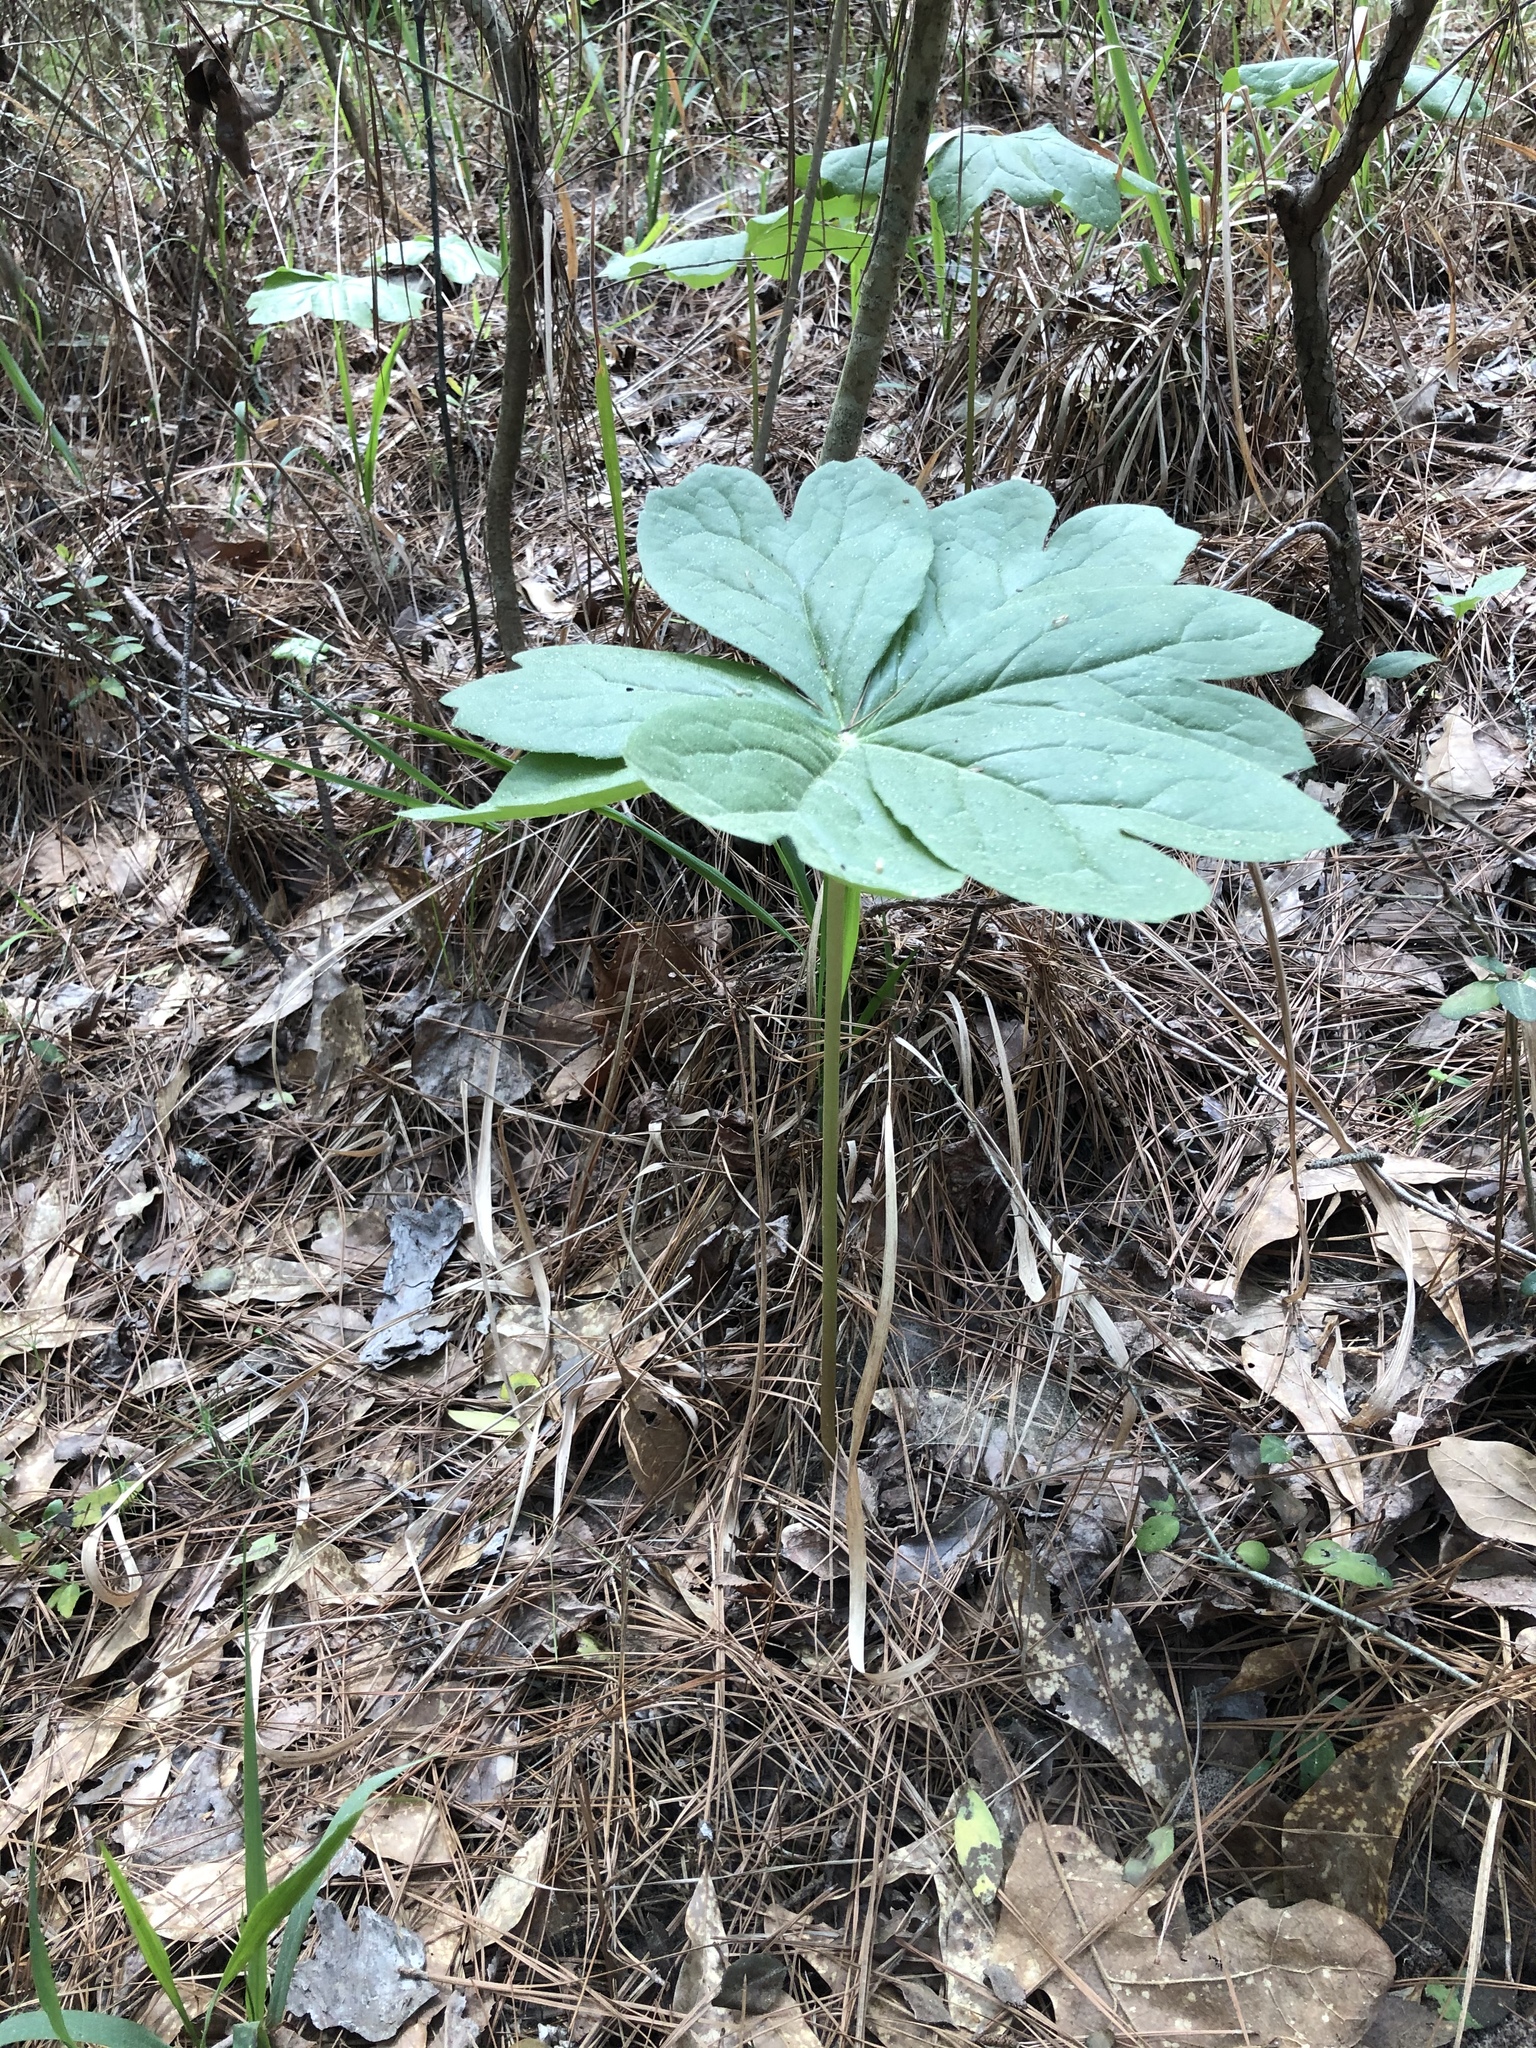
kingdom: Plantae
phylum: Tracheophyta
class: Magnoliopsida
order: Ranunculales
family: Berberidaceae
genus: Podophyllum
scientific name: Podophyllum peltatum
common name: Wild mandrake
